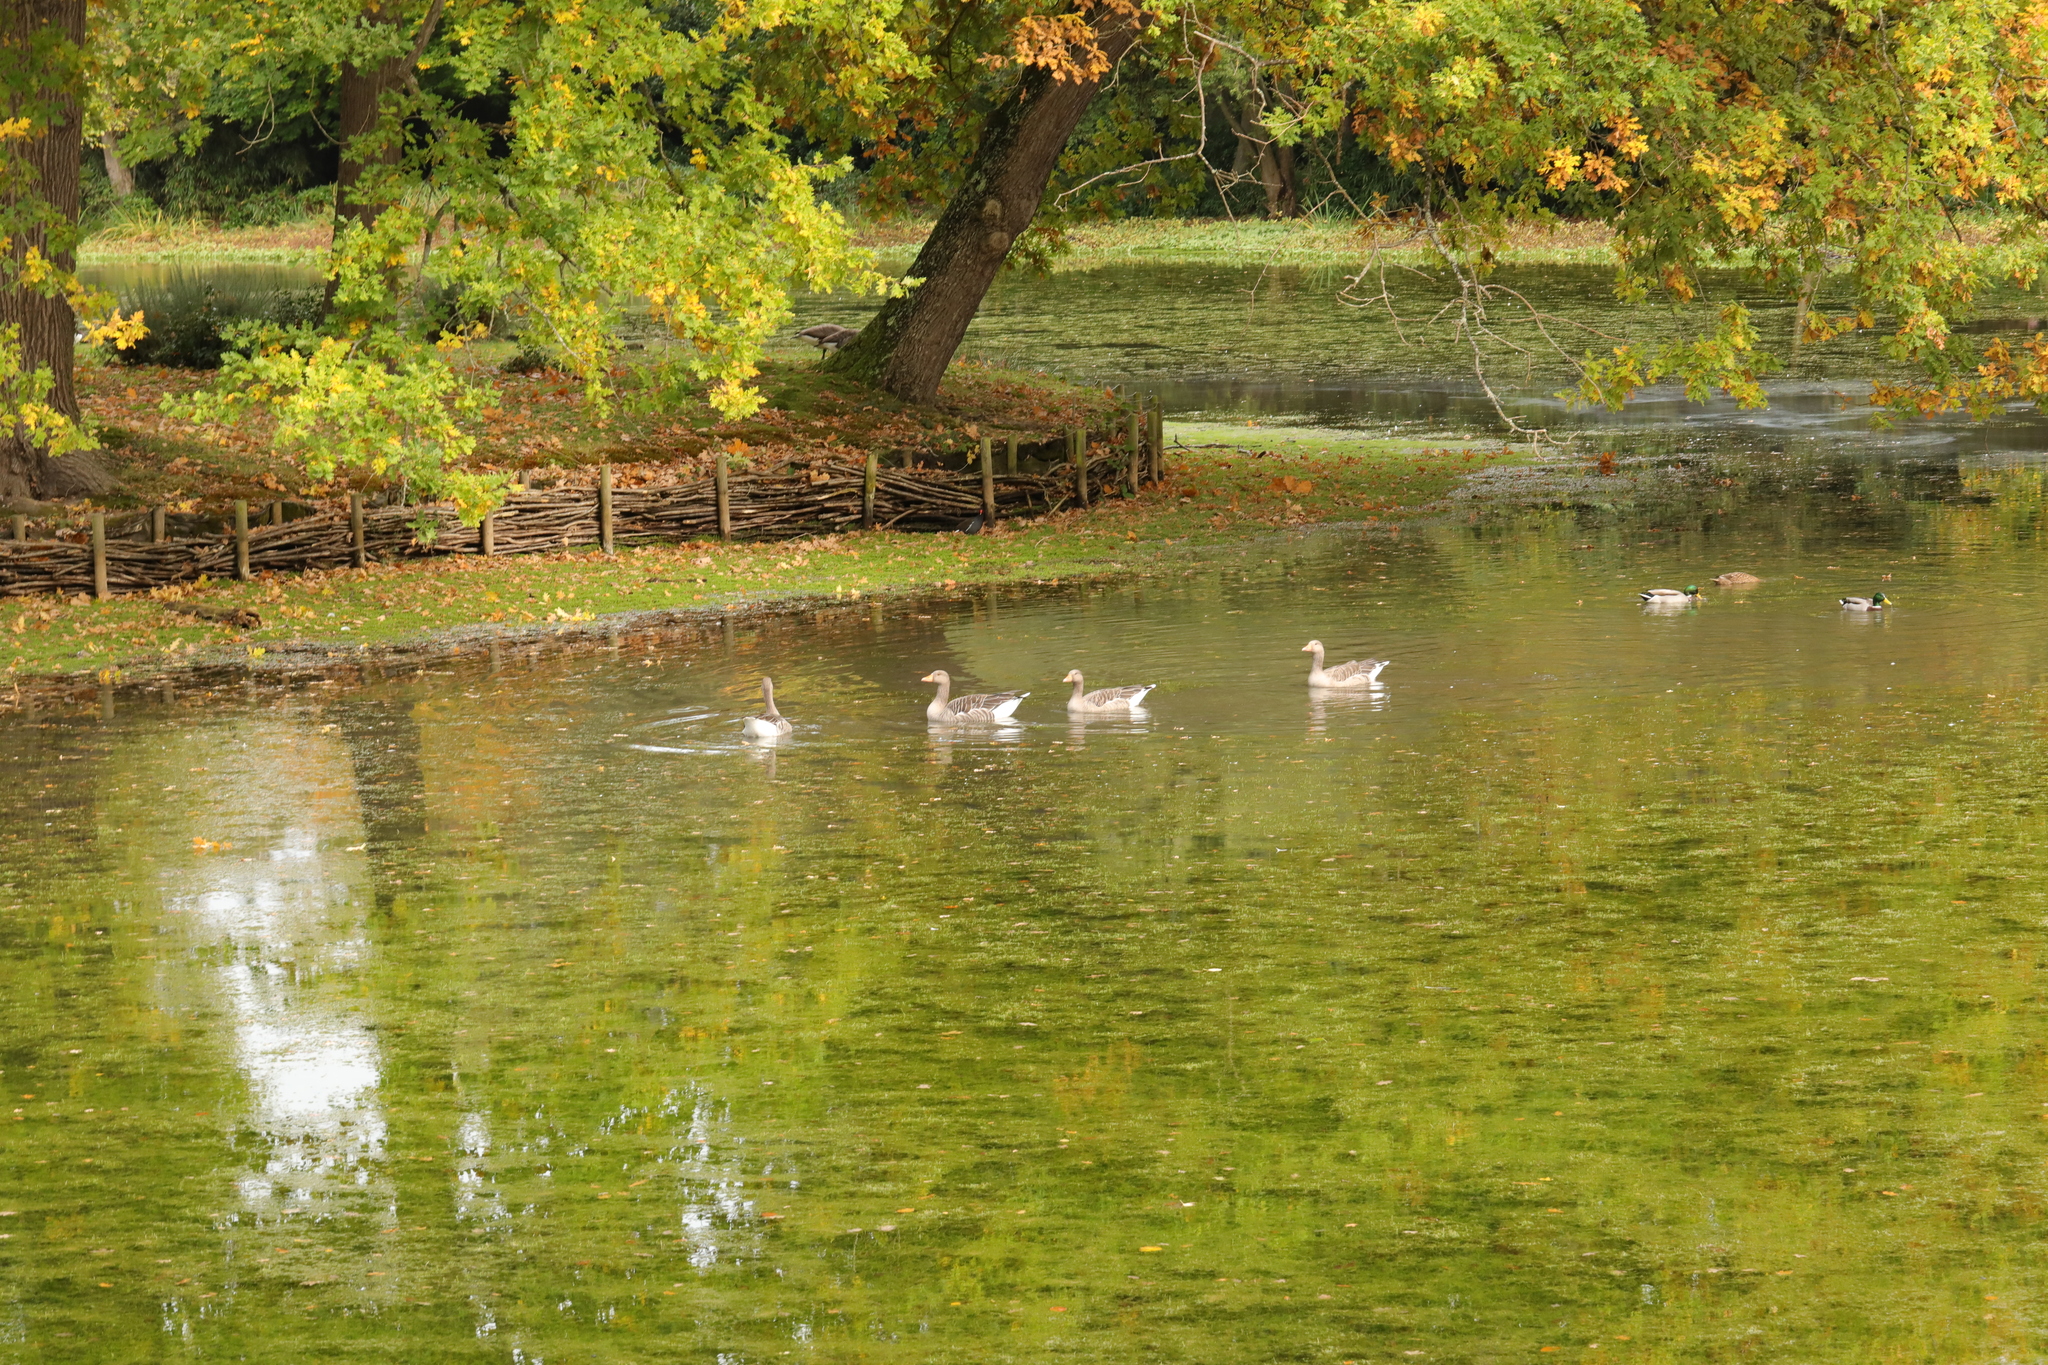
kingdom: Animalia
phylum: Chordata
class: Aves
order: Anseriformes
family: Anatidae
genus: Anser
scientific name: Anser anser
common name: Greylag goose
